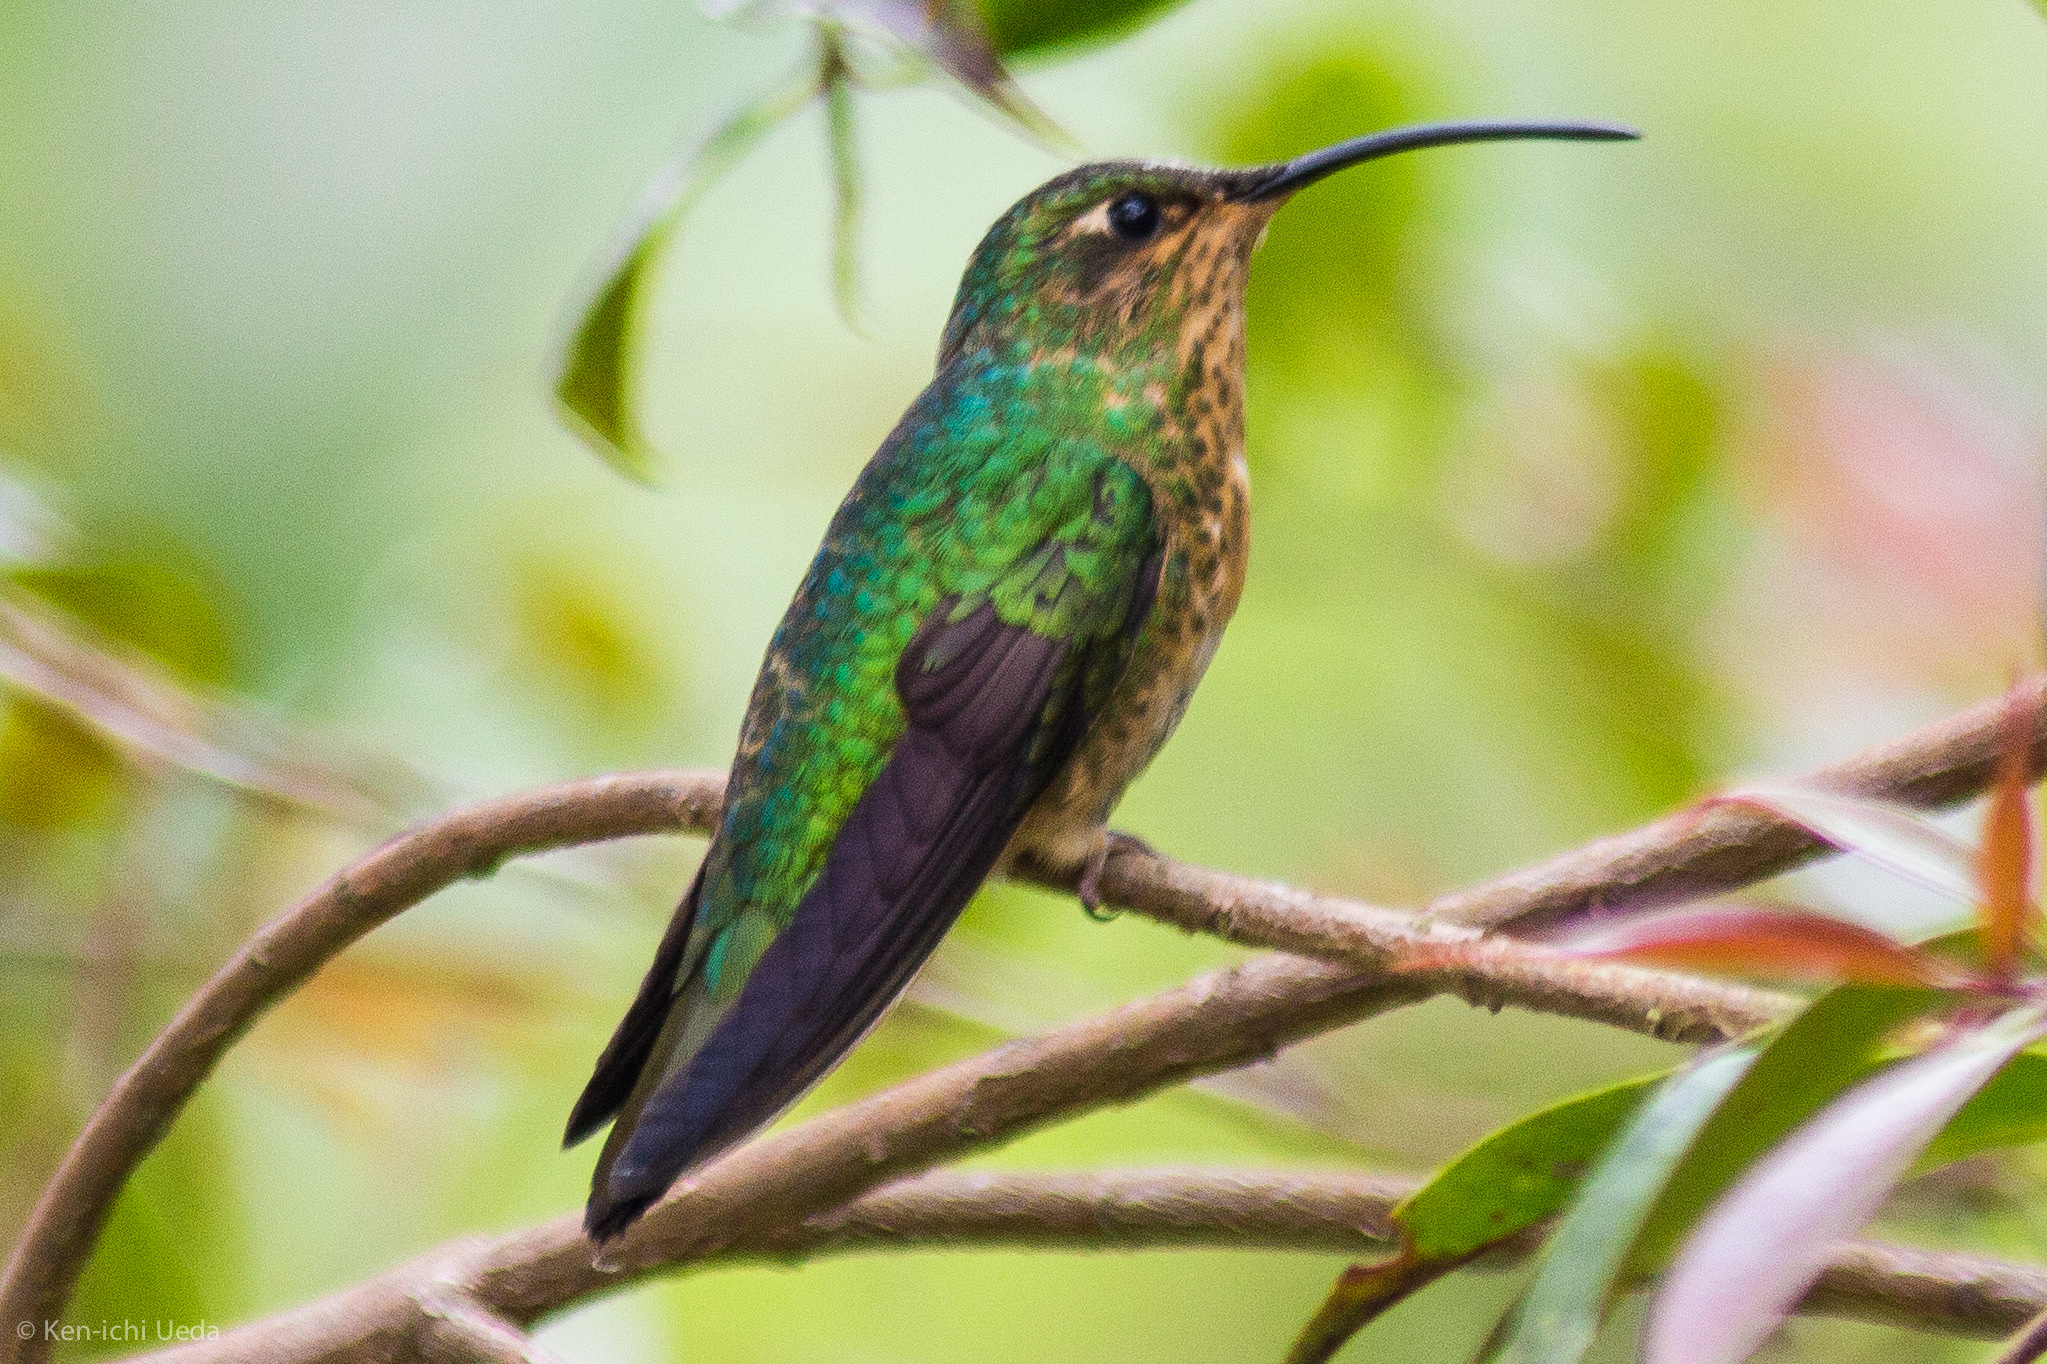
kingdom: Animalia
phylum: Chordata
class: Aves
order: Apodiformes
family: Trochilidae
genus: Lafresnaya
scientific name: Lafresnaya lafresnayi
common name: Mountain velvetbreast
